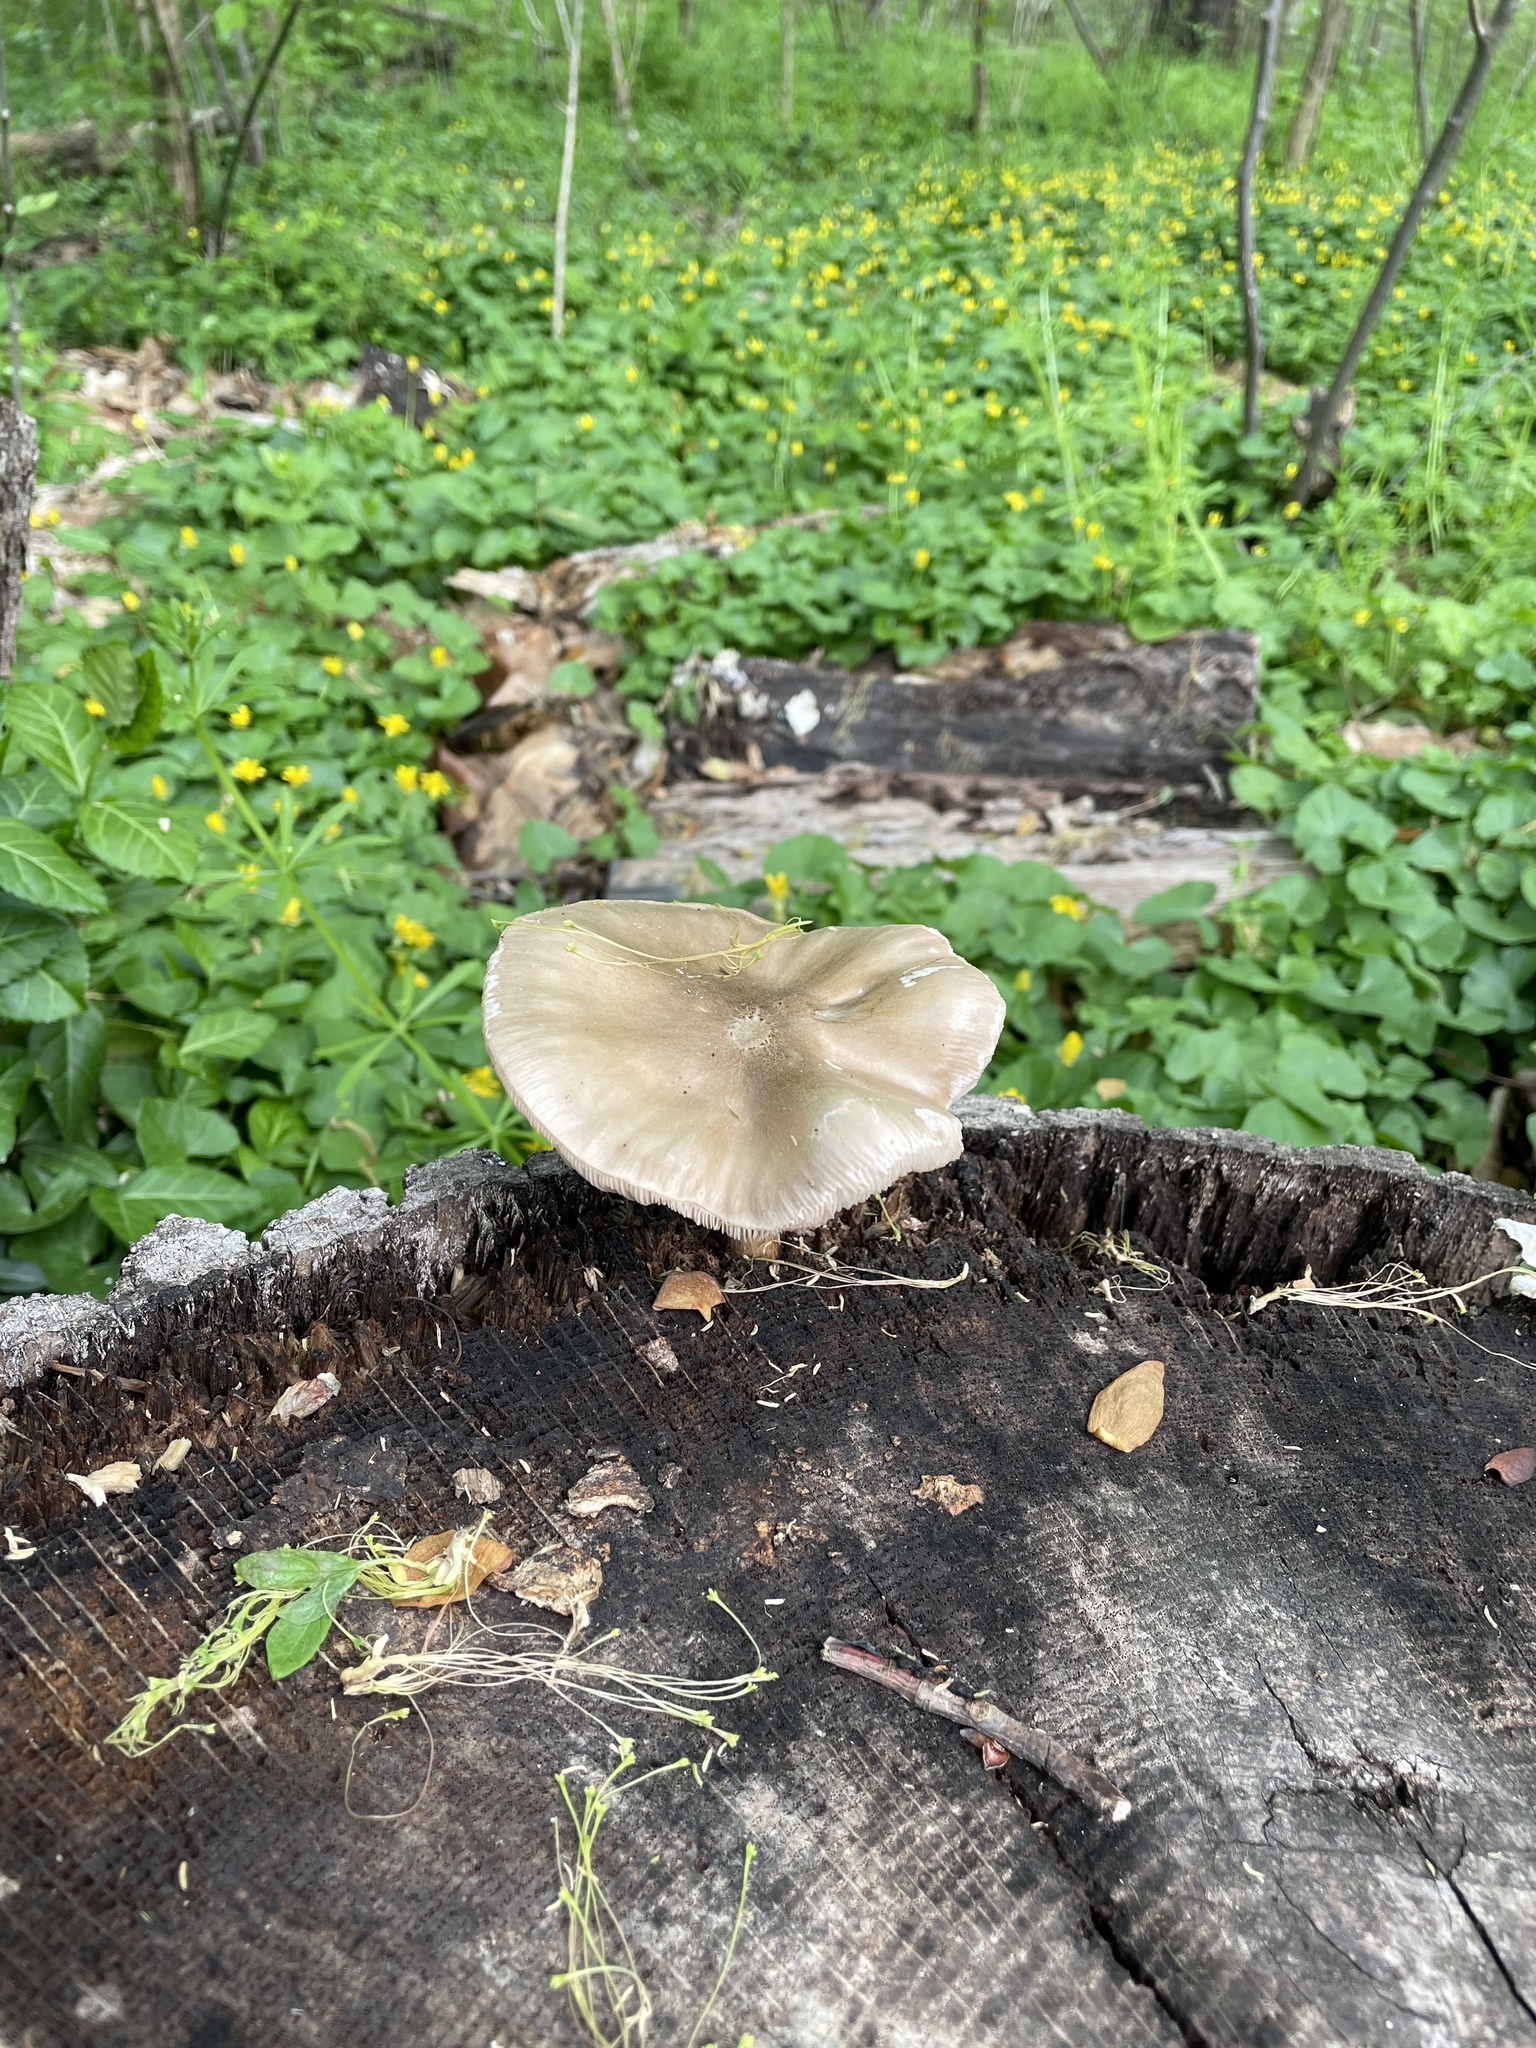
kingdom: Fungi
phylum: Basidiomycota
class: Agaricomycetes
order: Agaricales
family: Pluteaceae
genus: Pluteus
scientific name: Pluteus cervinus
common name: Deer shield
